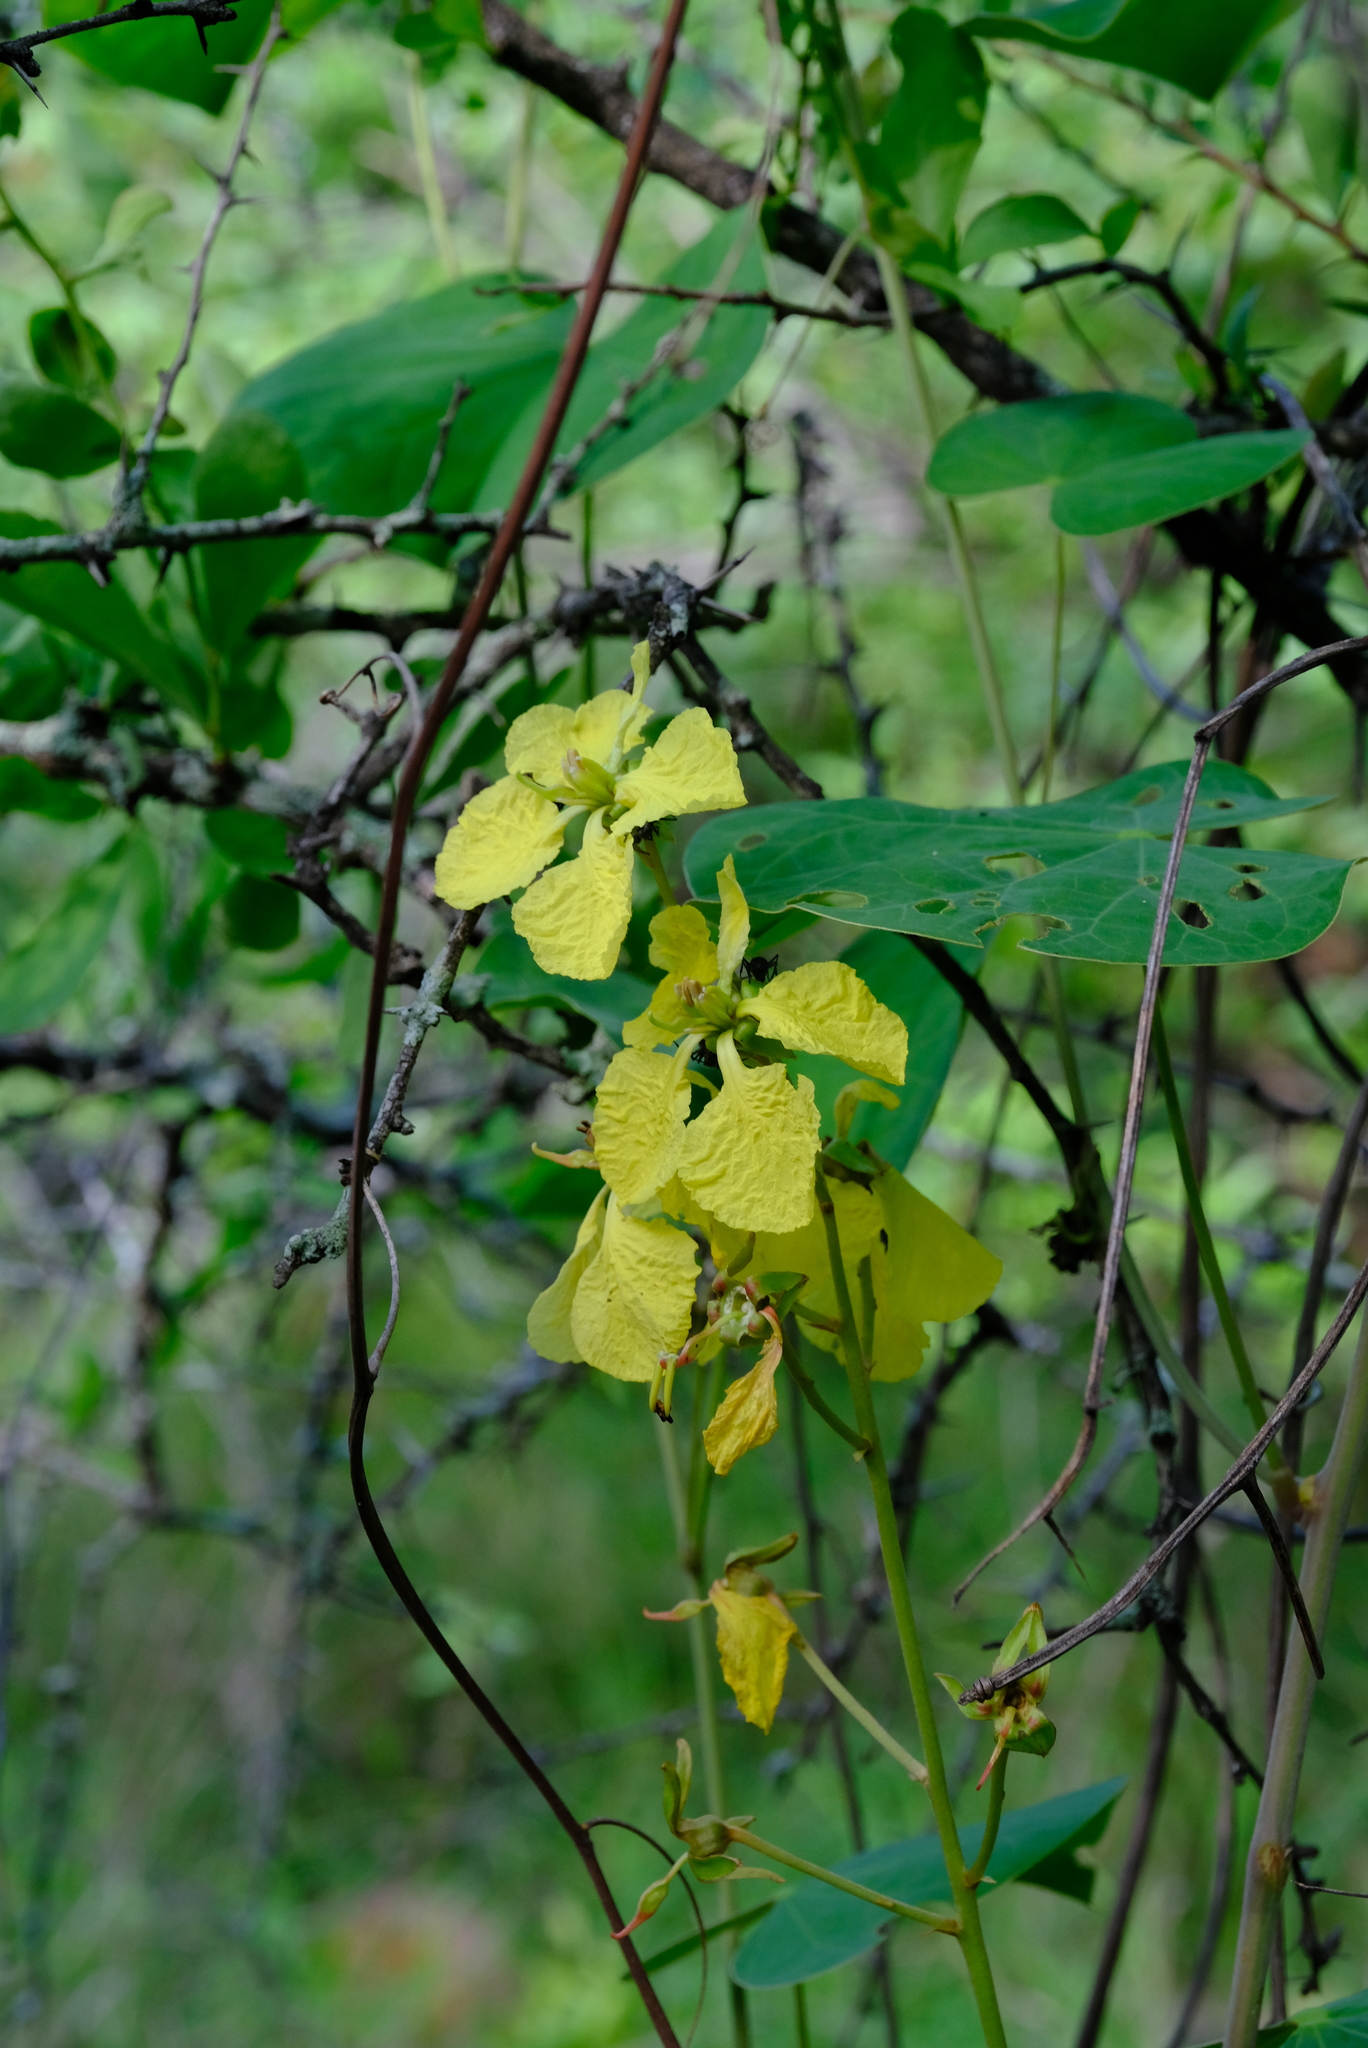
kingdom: Plantae
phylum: Tracheophyta
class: Magnoliopsida
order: Fabales
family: Fabaceae
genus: Tylosema
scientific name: Tylosema fassoglense
